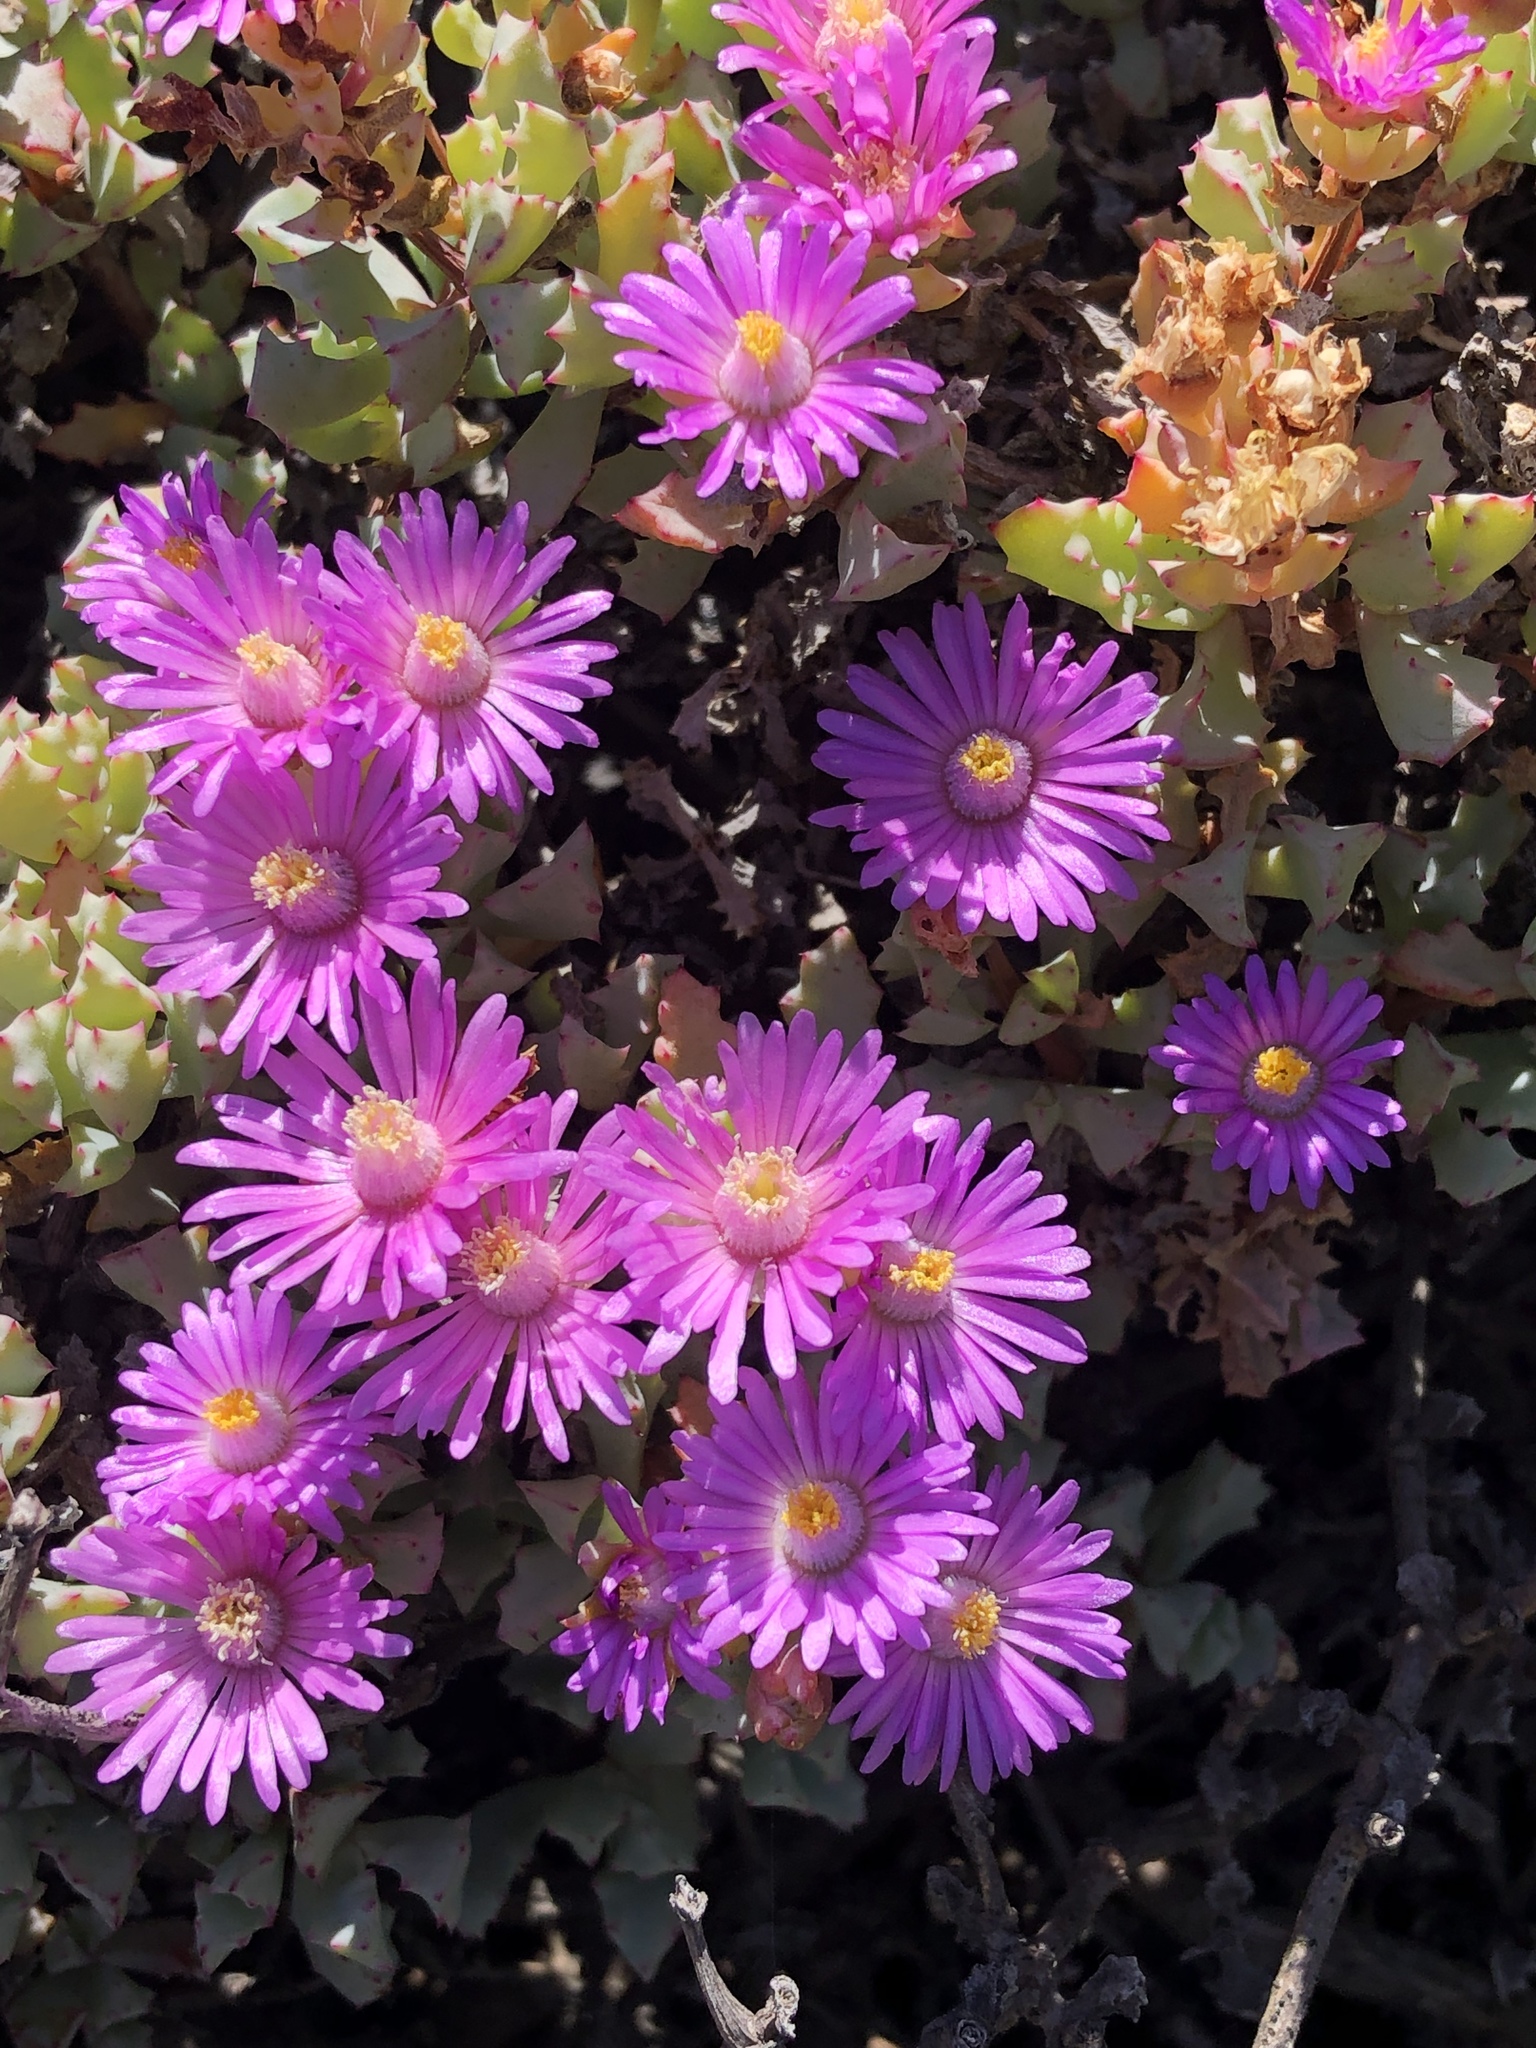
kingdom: Plantae
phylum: Tracheophyta
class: Magnoliopsida
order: Caryophyllales
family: Aizoaceae
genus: Oscularia
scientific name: Oscularia deltoides
